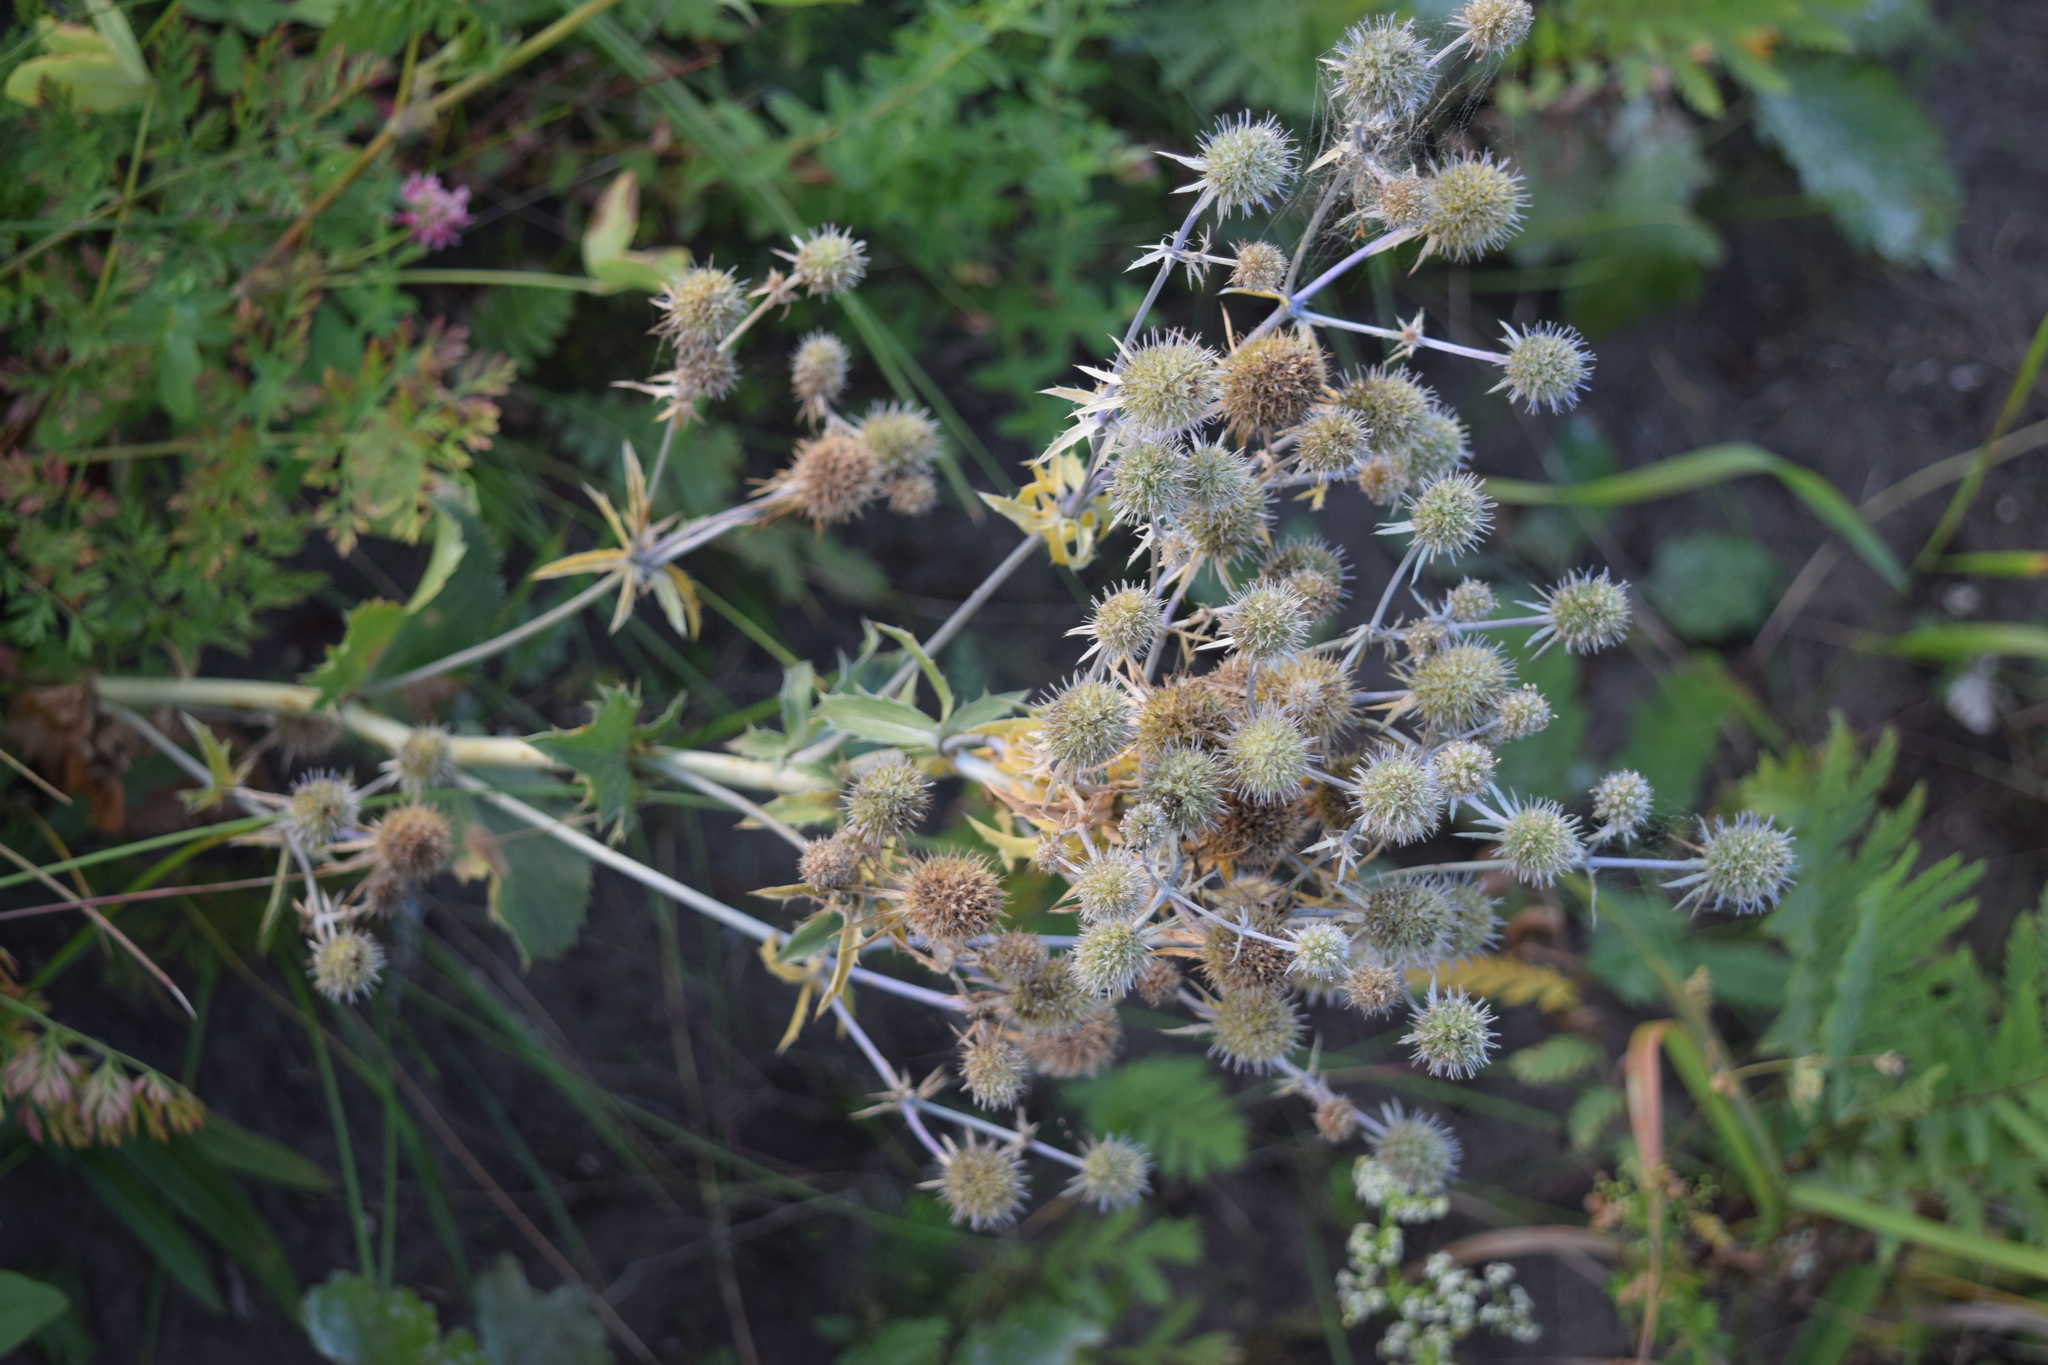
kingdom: Plantae
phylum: Tracheophyta
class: Magnoliopsida
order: Apiales
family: Apiaceae
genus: Eryngium
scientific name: Eryngium planum
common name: Blue eryngo
